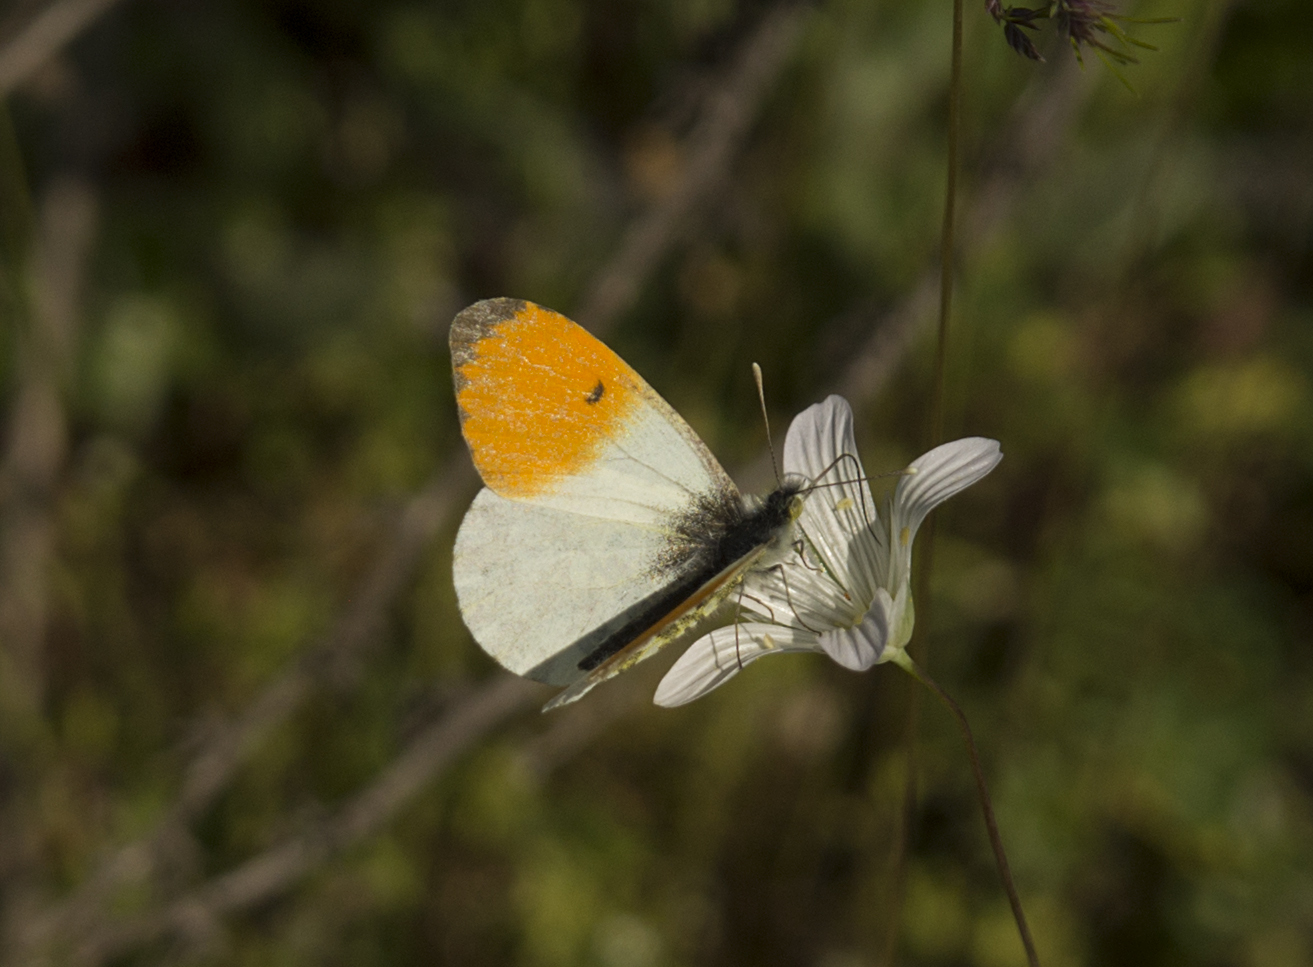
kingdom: Animalia
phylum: Arthropoda
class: Insecta
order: Lepidoptera
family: Pieridae
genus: Anthocharis
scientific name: Anthocharis cardamines
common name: Orange-tip
